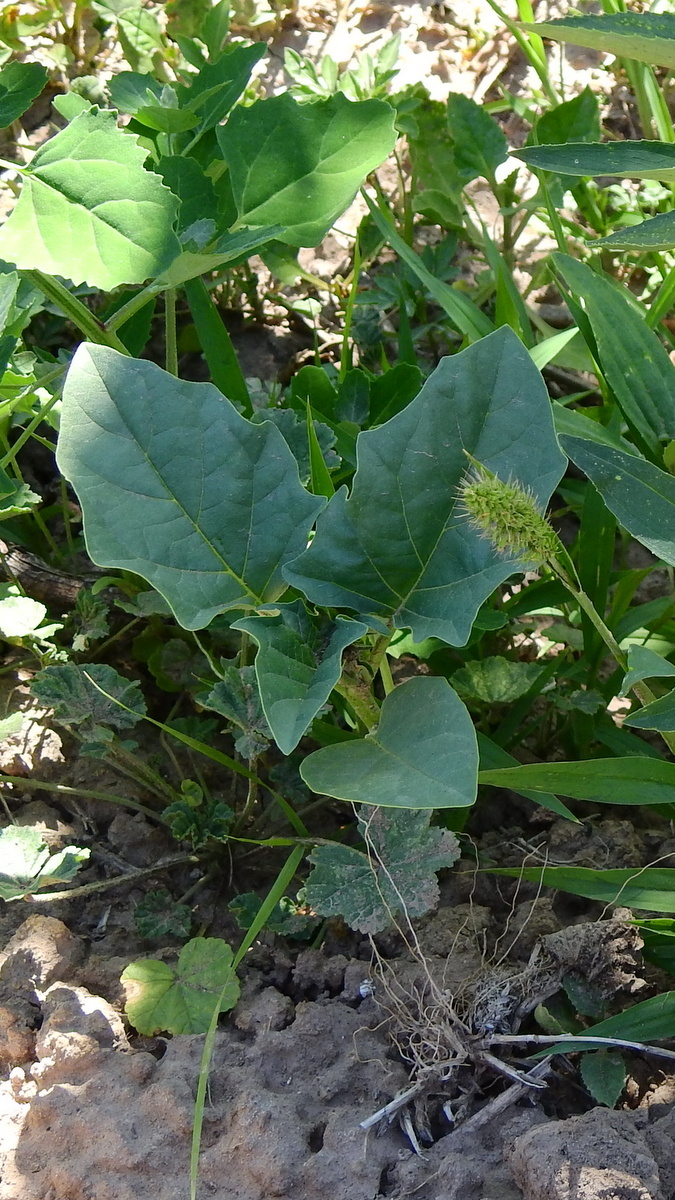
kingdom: Plantae
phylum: Tracheophyta
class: Magnoliopsida
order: Solanales
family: Solanaceae
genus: Datura
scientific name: Datura ferox
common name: Angel's-trumpets
